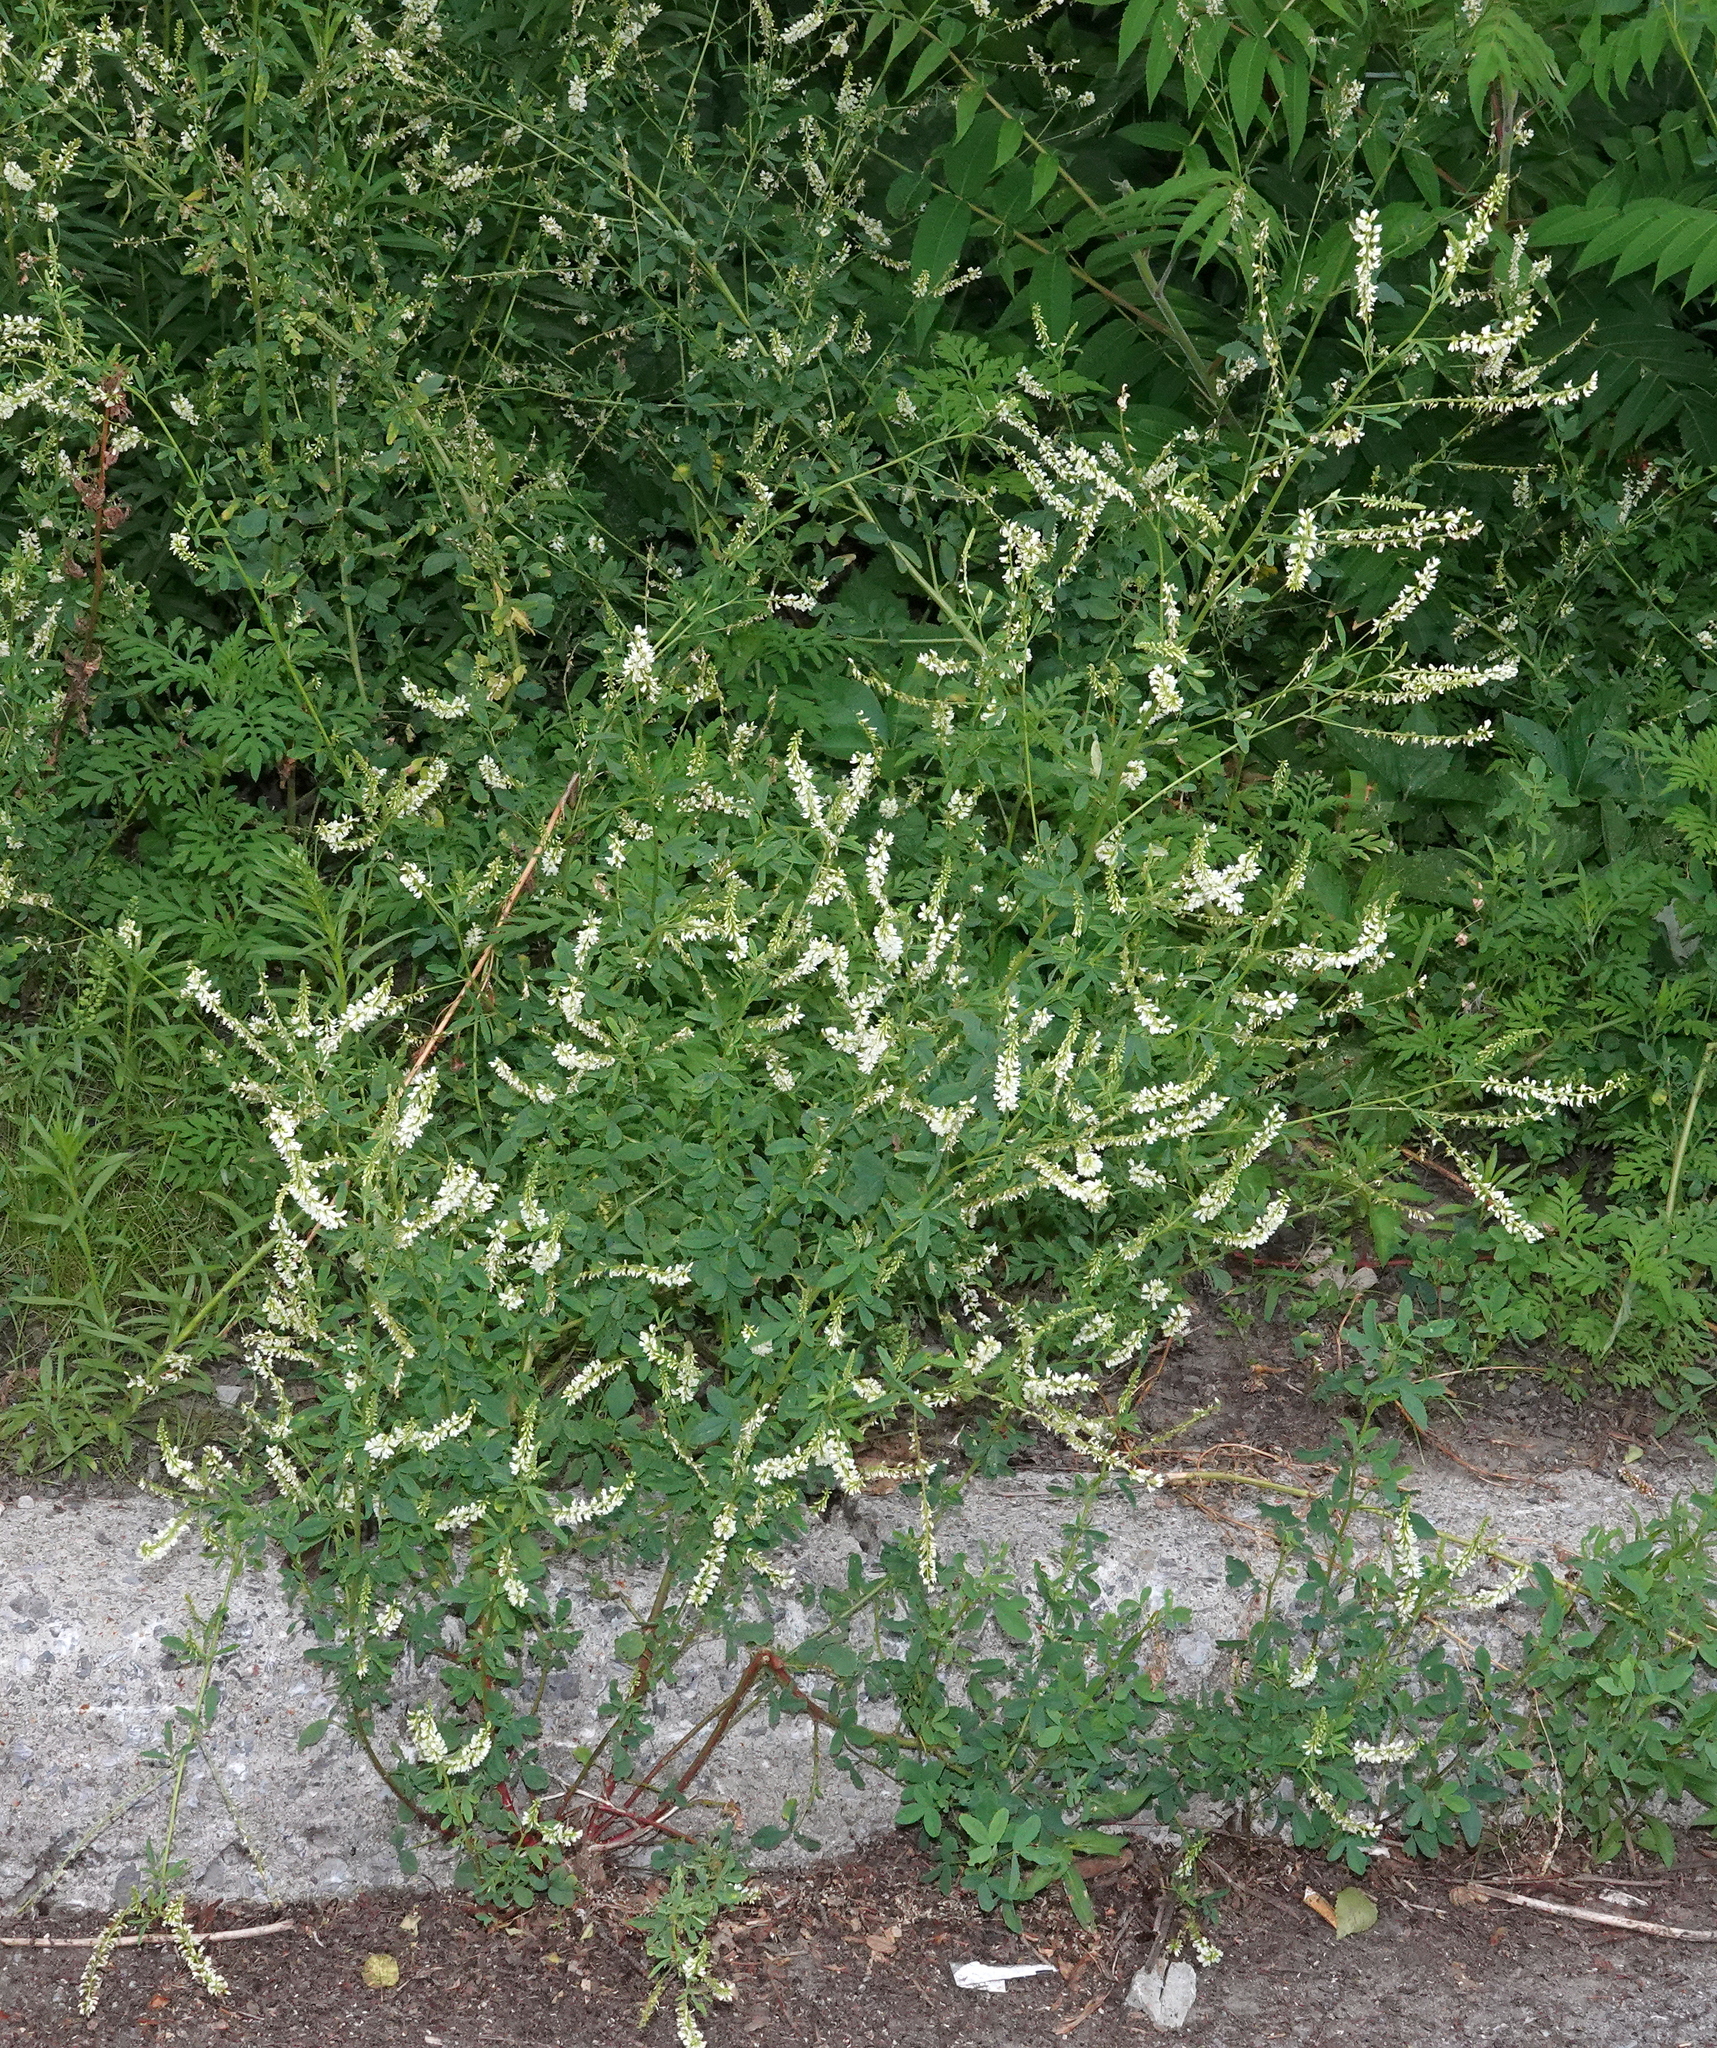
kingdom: Plantae
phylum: Tracheophyta
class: Magnoliopsida
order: Fabales
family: Fabaceae
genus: Melilotus
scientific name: Melilotus albus
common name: White melilot
